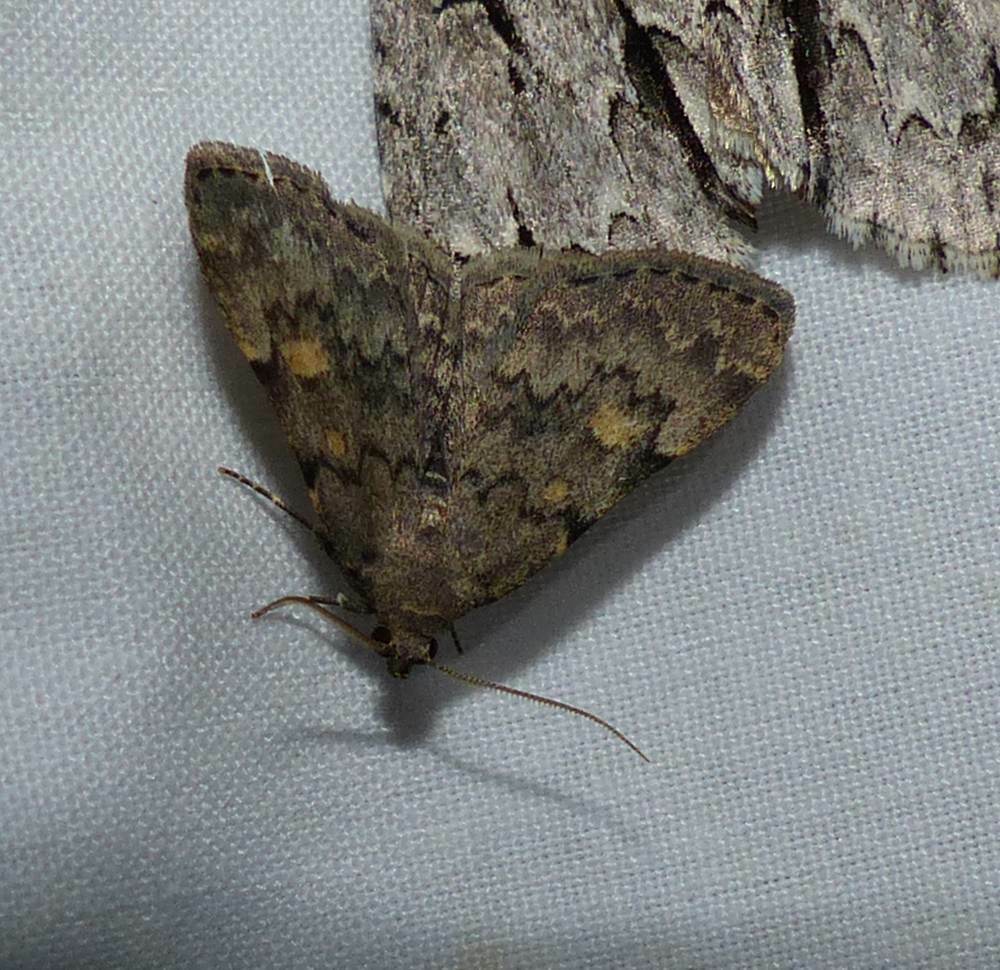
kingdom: Animalia
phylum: Arthropoda
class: Insecta
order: Lepidoptera
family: Erebidae
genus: Idia
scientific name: Idia aemula
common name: Common idia moth
